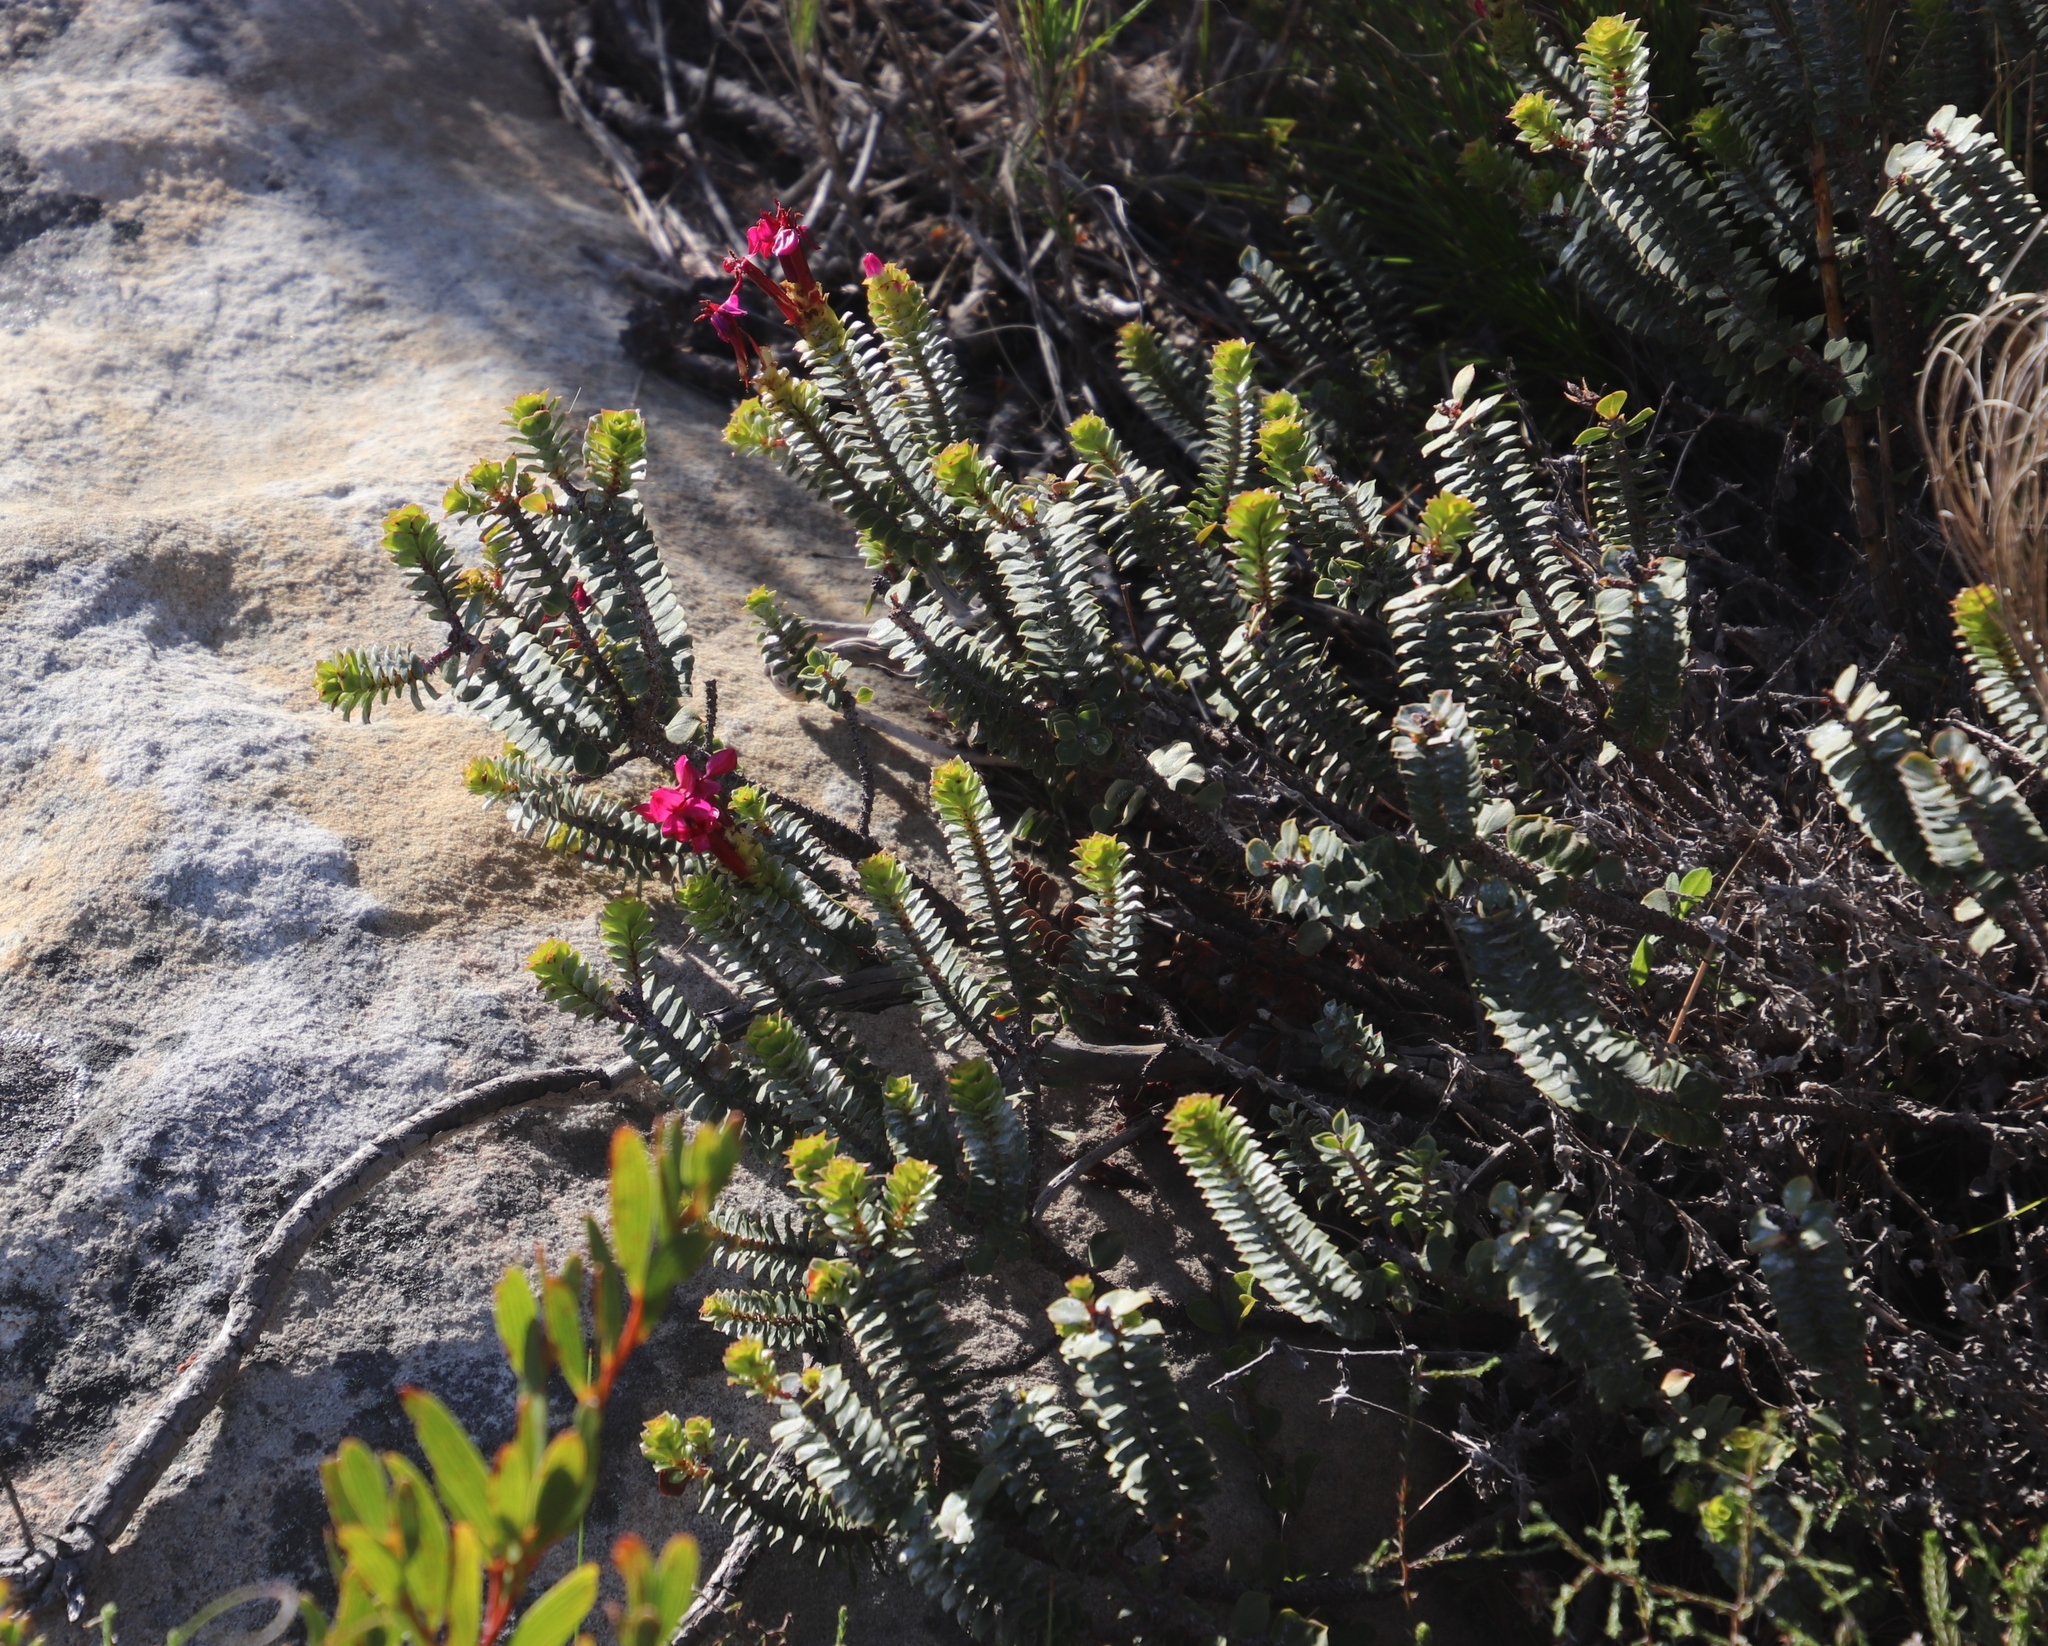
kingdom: Plantae
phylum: Tracheophyta
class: Magnoliopsida
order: Myrtales
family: Penaeaceae
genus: Saltera
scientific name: Saltera sarcocolla
